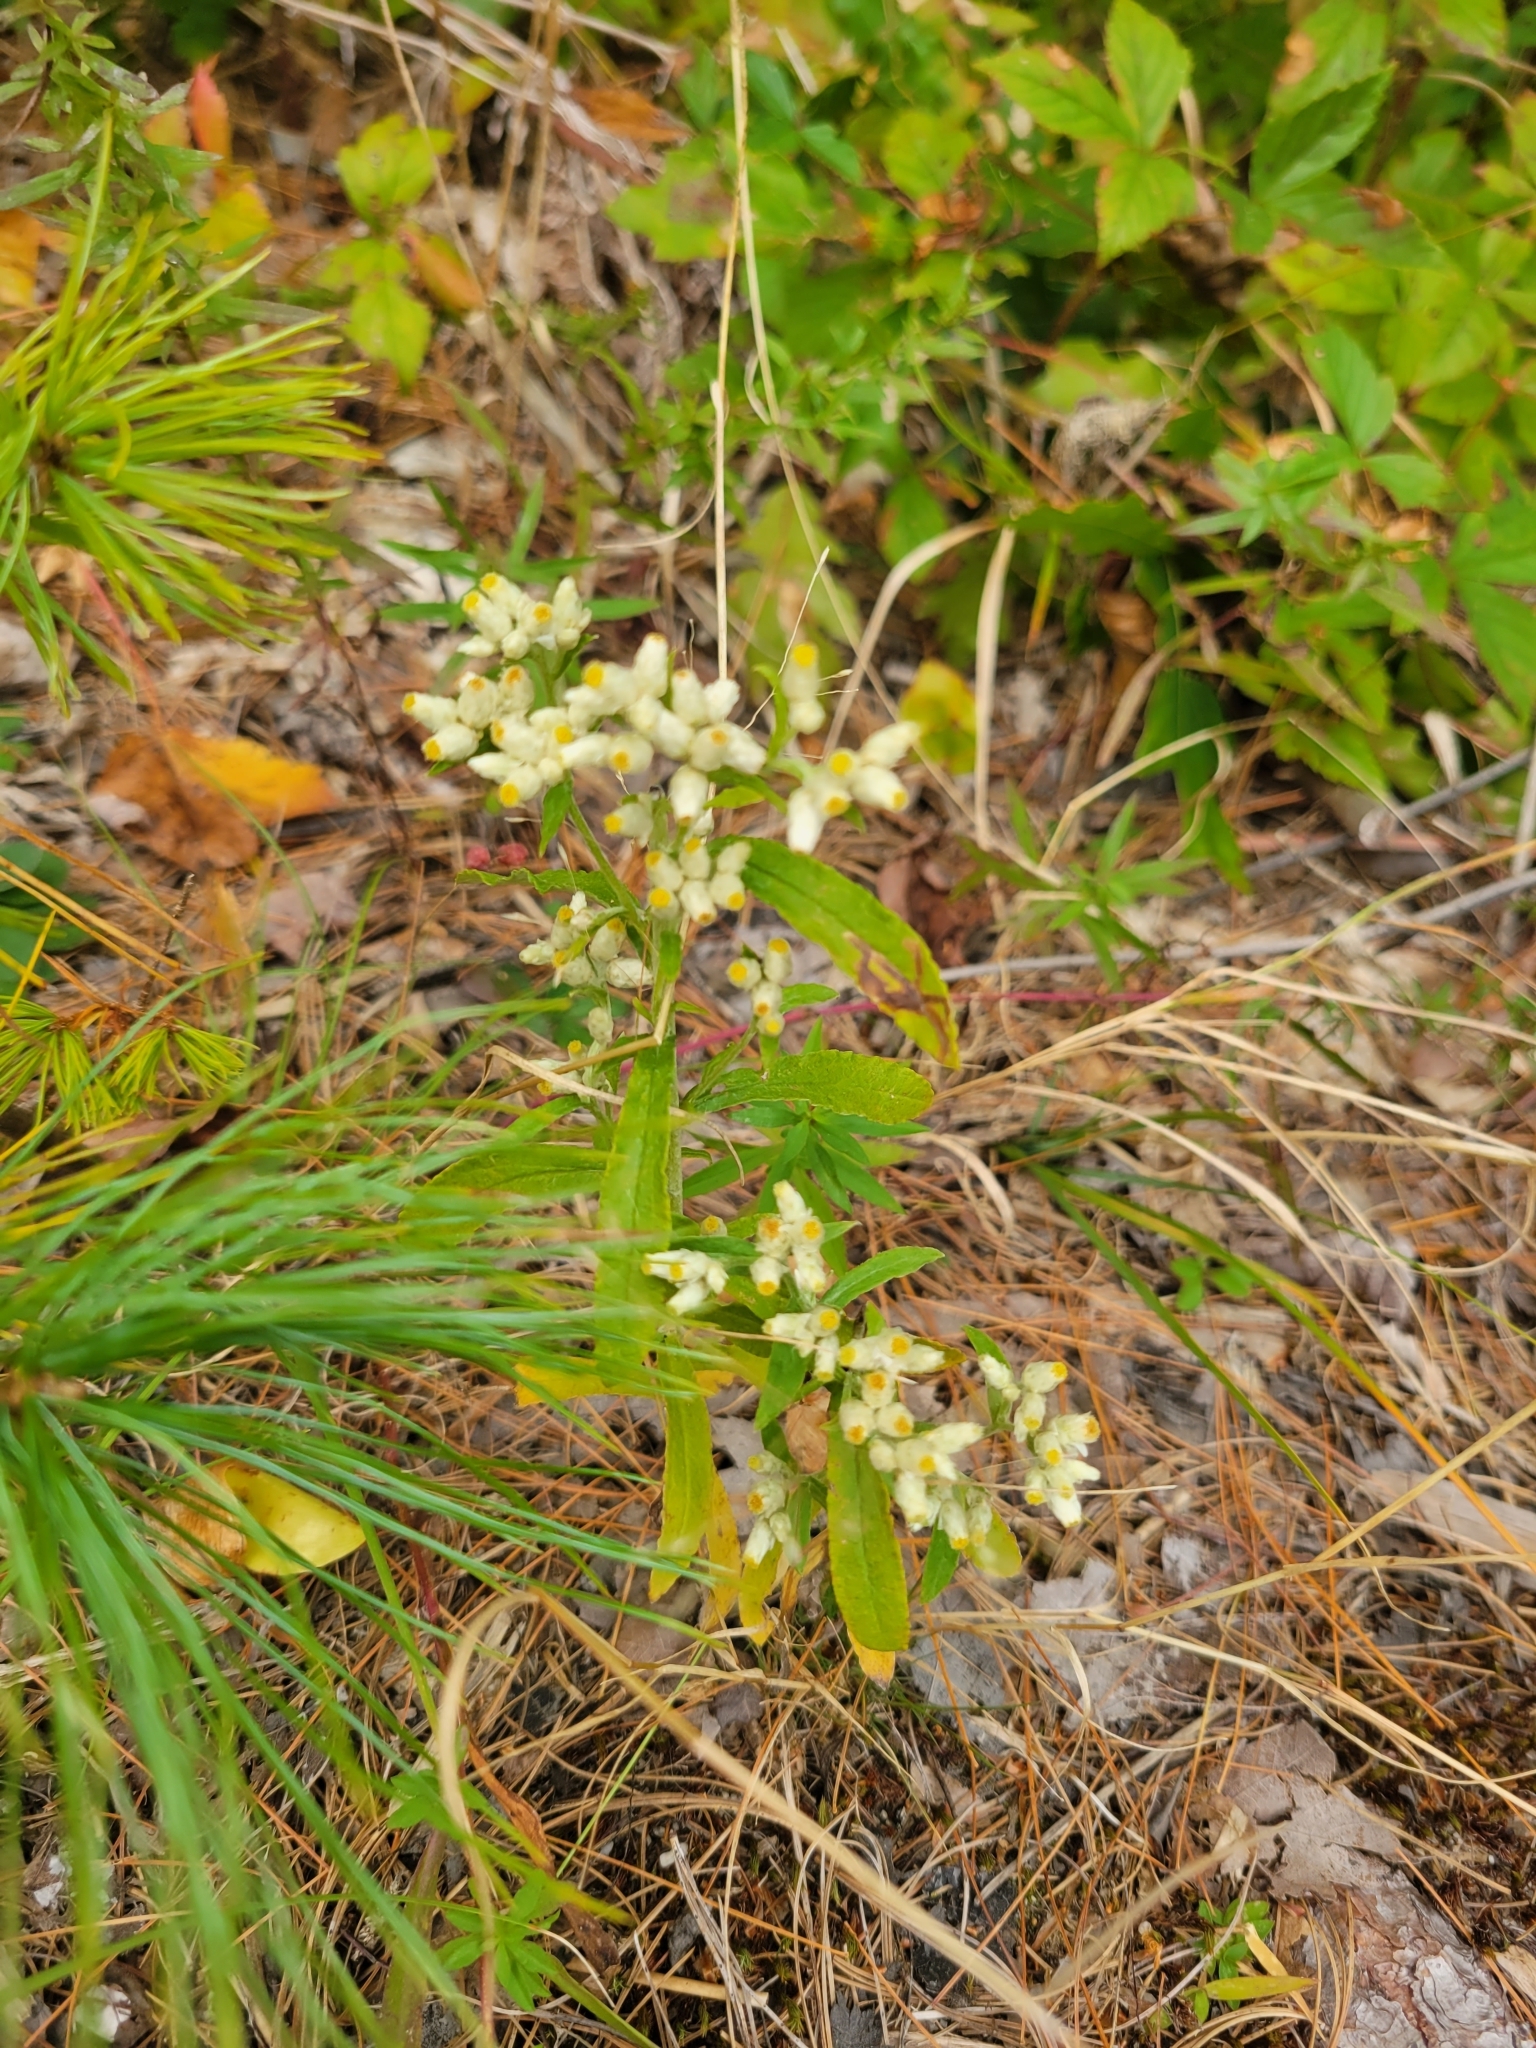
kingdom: Plantae
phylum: Tracheophyta
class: Magnoliopsida
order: Asterales
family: Asteraceae
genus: Pseudognaphalium
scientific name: Pseudognaphalium obtusifolium
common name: Eastern rabbit-tobacco
